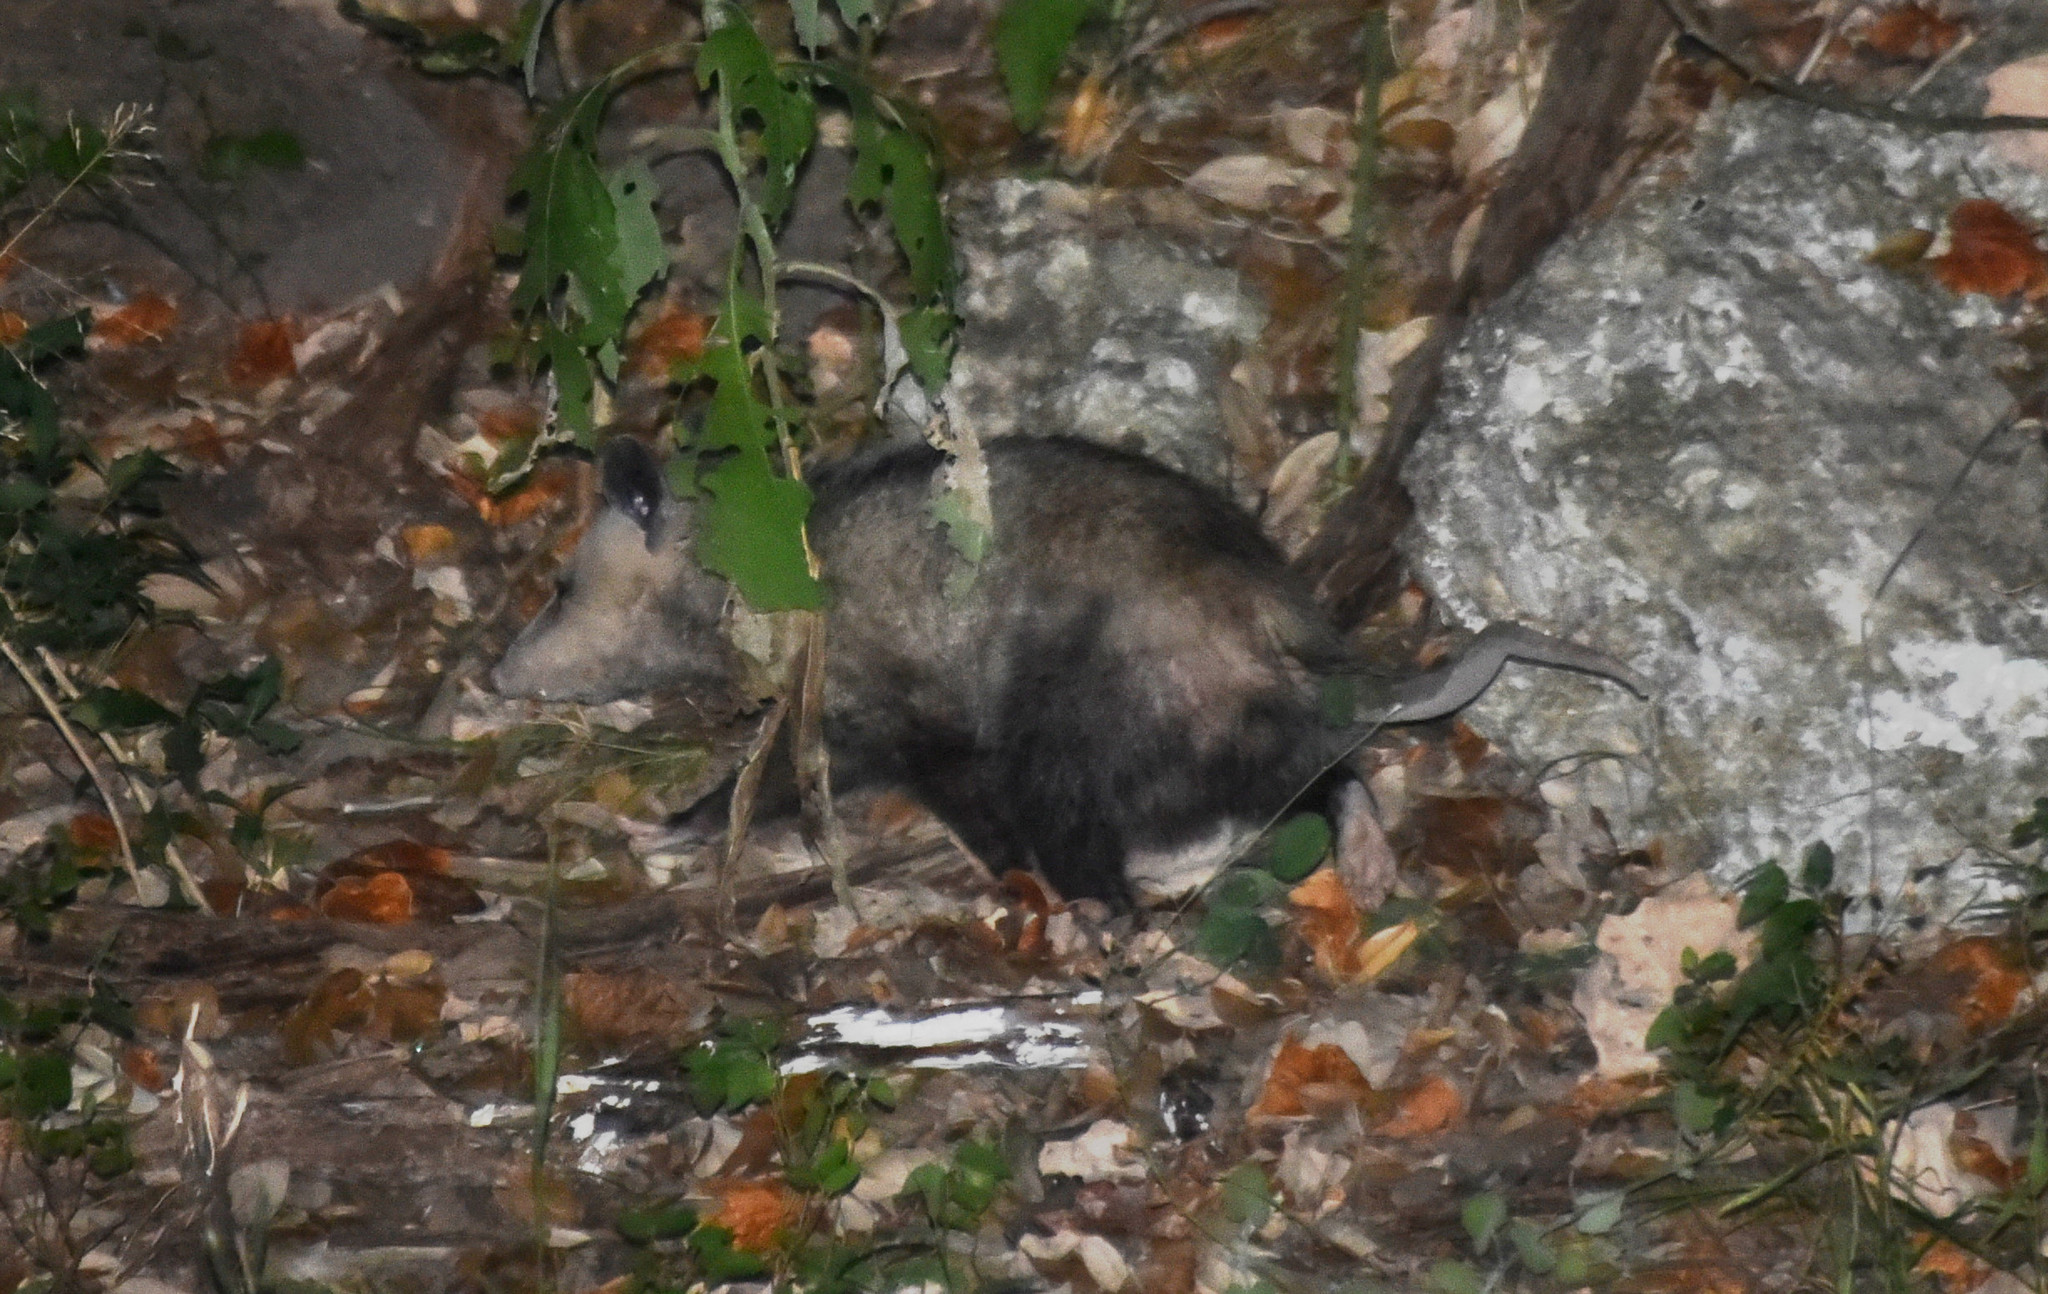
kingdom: Animalia
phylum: Chordata
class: Mammalia
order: Didelphimorphia
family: Didelphidae
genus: Didelphis
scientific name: Didelphis virginiana
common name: Virginia opossum
